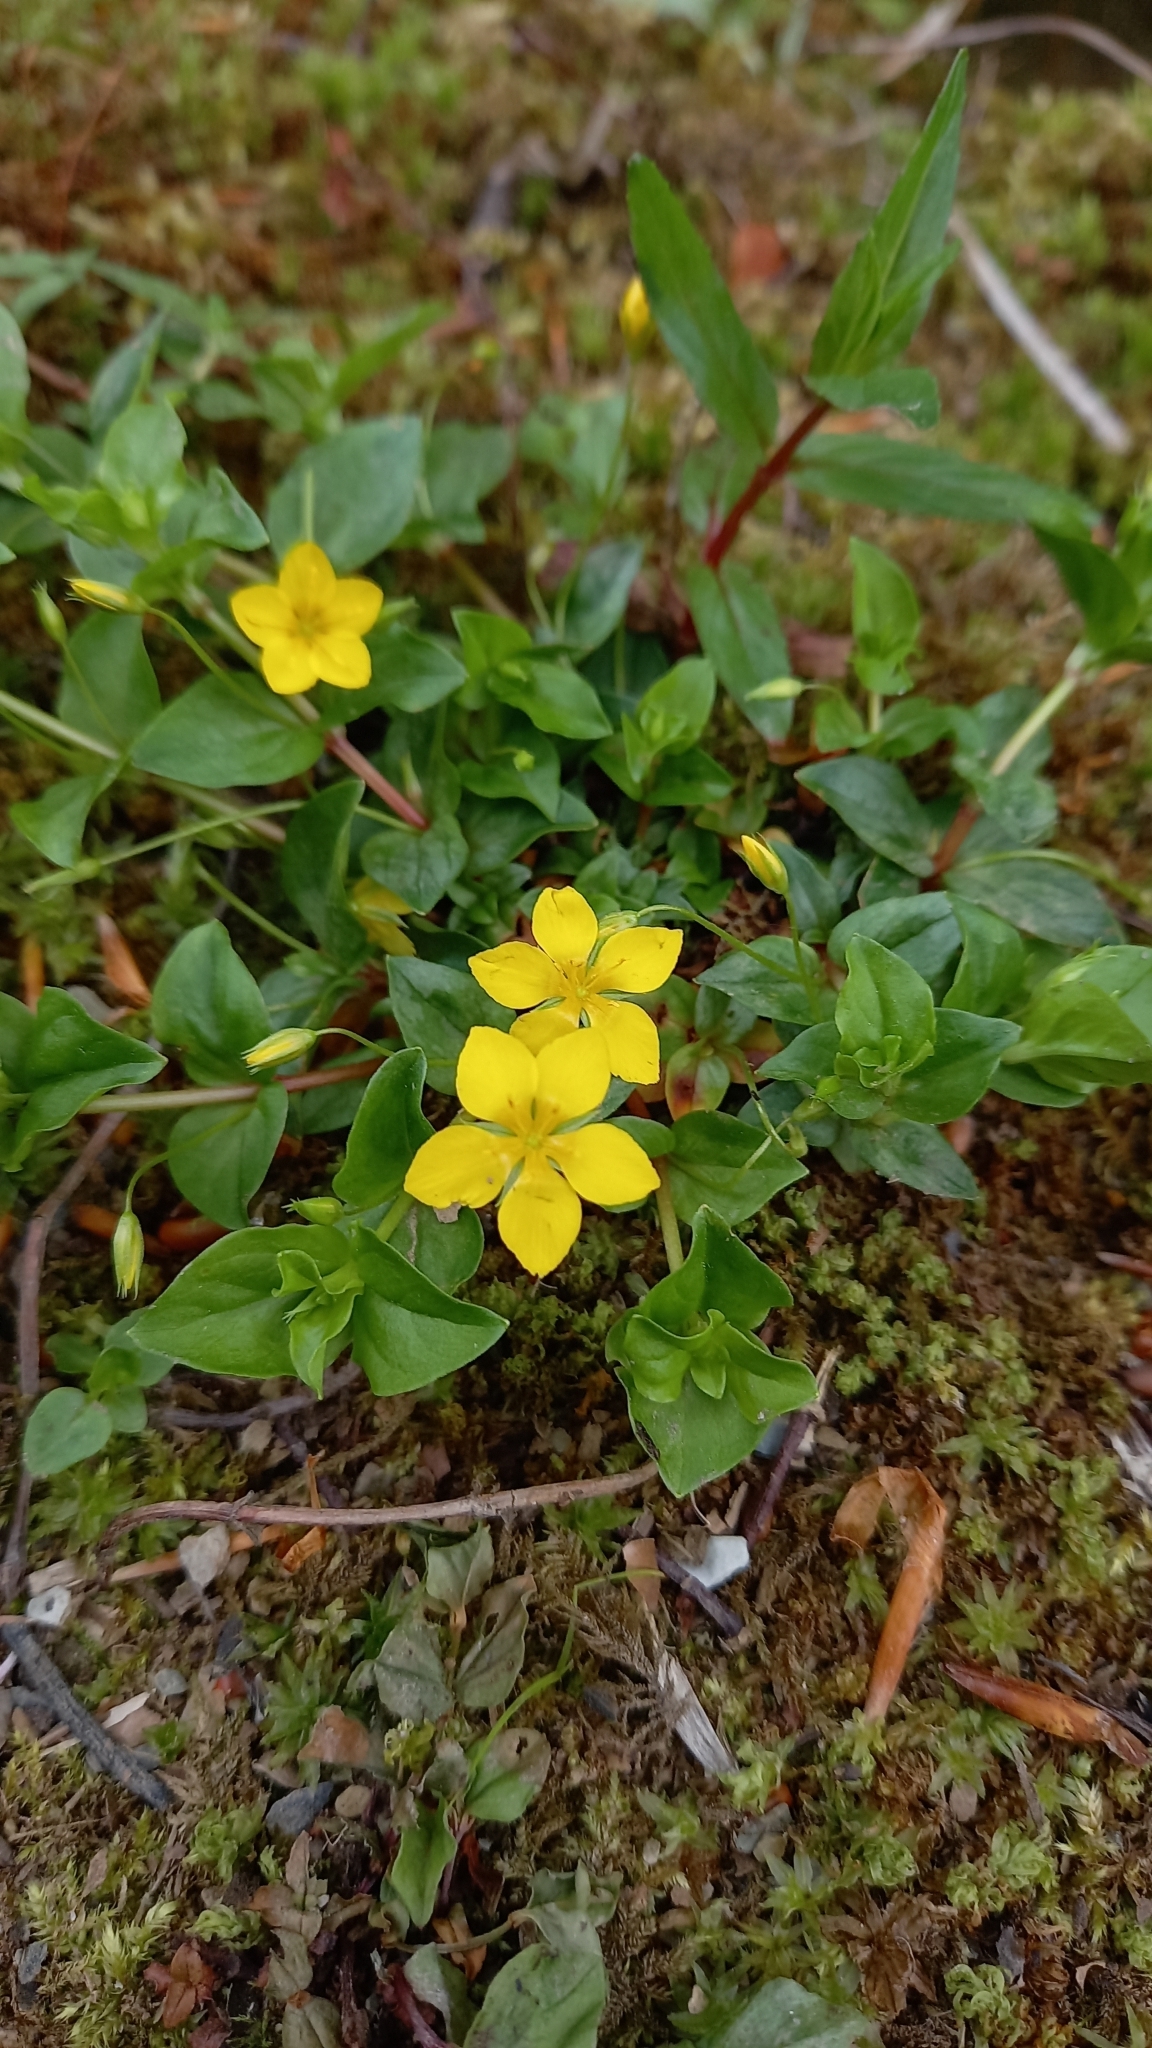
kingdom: Plantae
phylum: Tracheophyta
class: Magnoliopsida
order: Ericales
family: Primulaceae
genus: Lysimachia
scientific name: Lysimachia nemorum
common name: Yellow pimpernel
